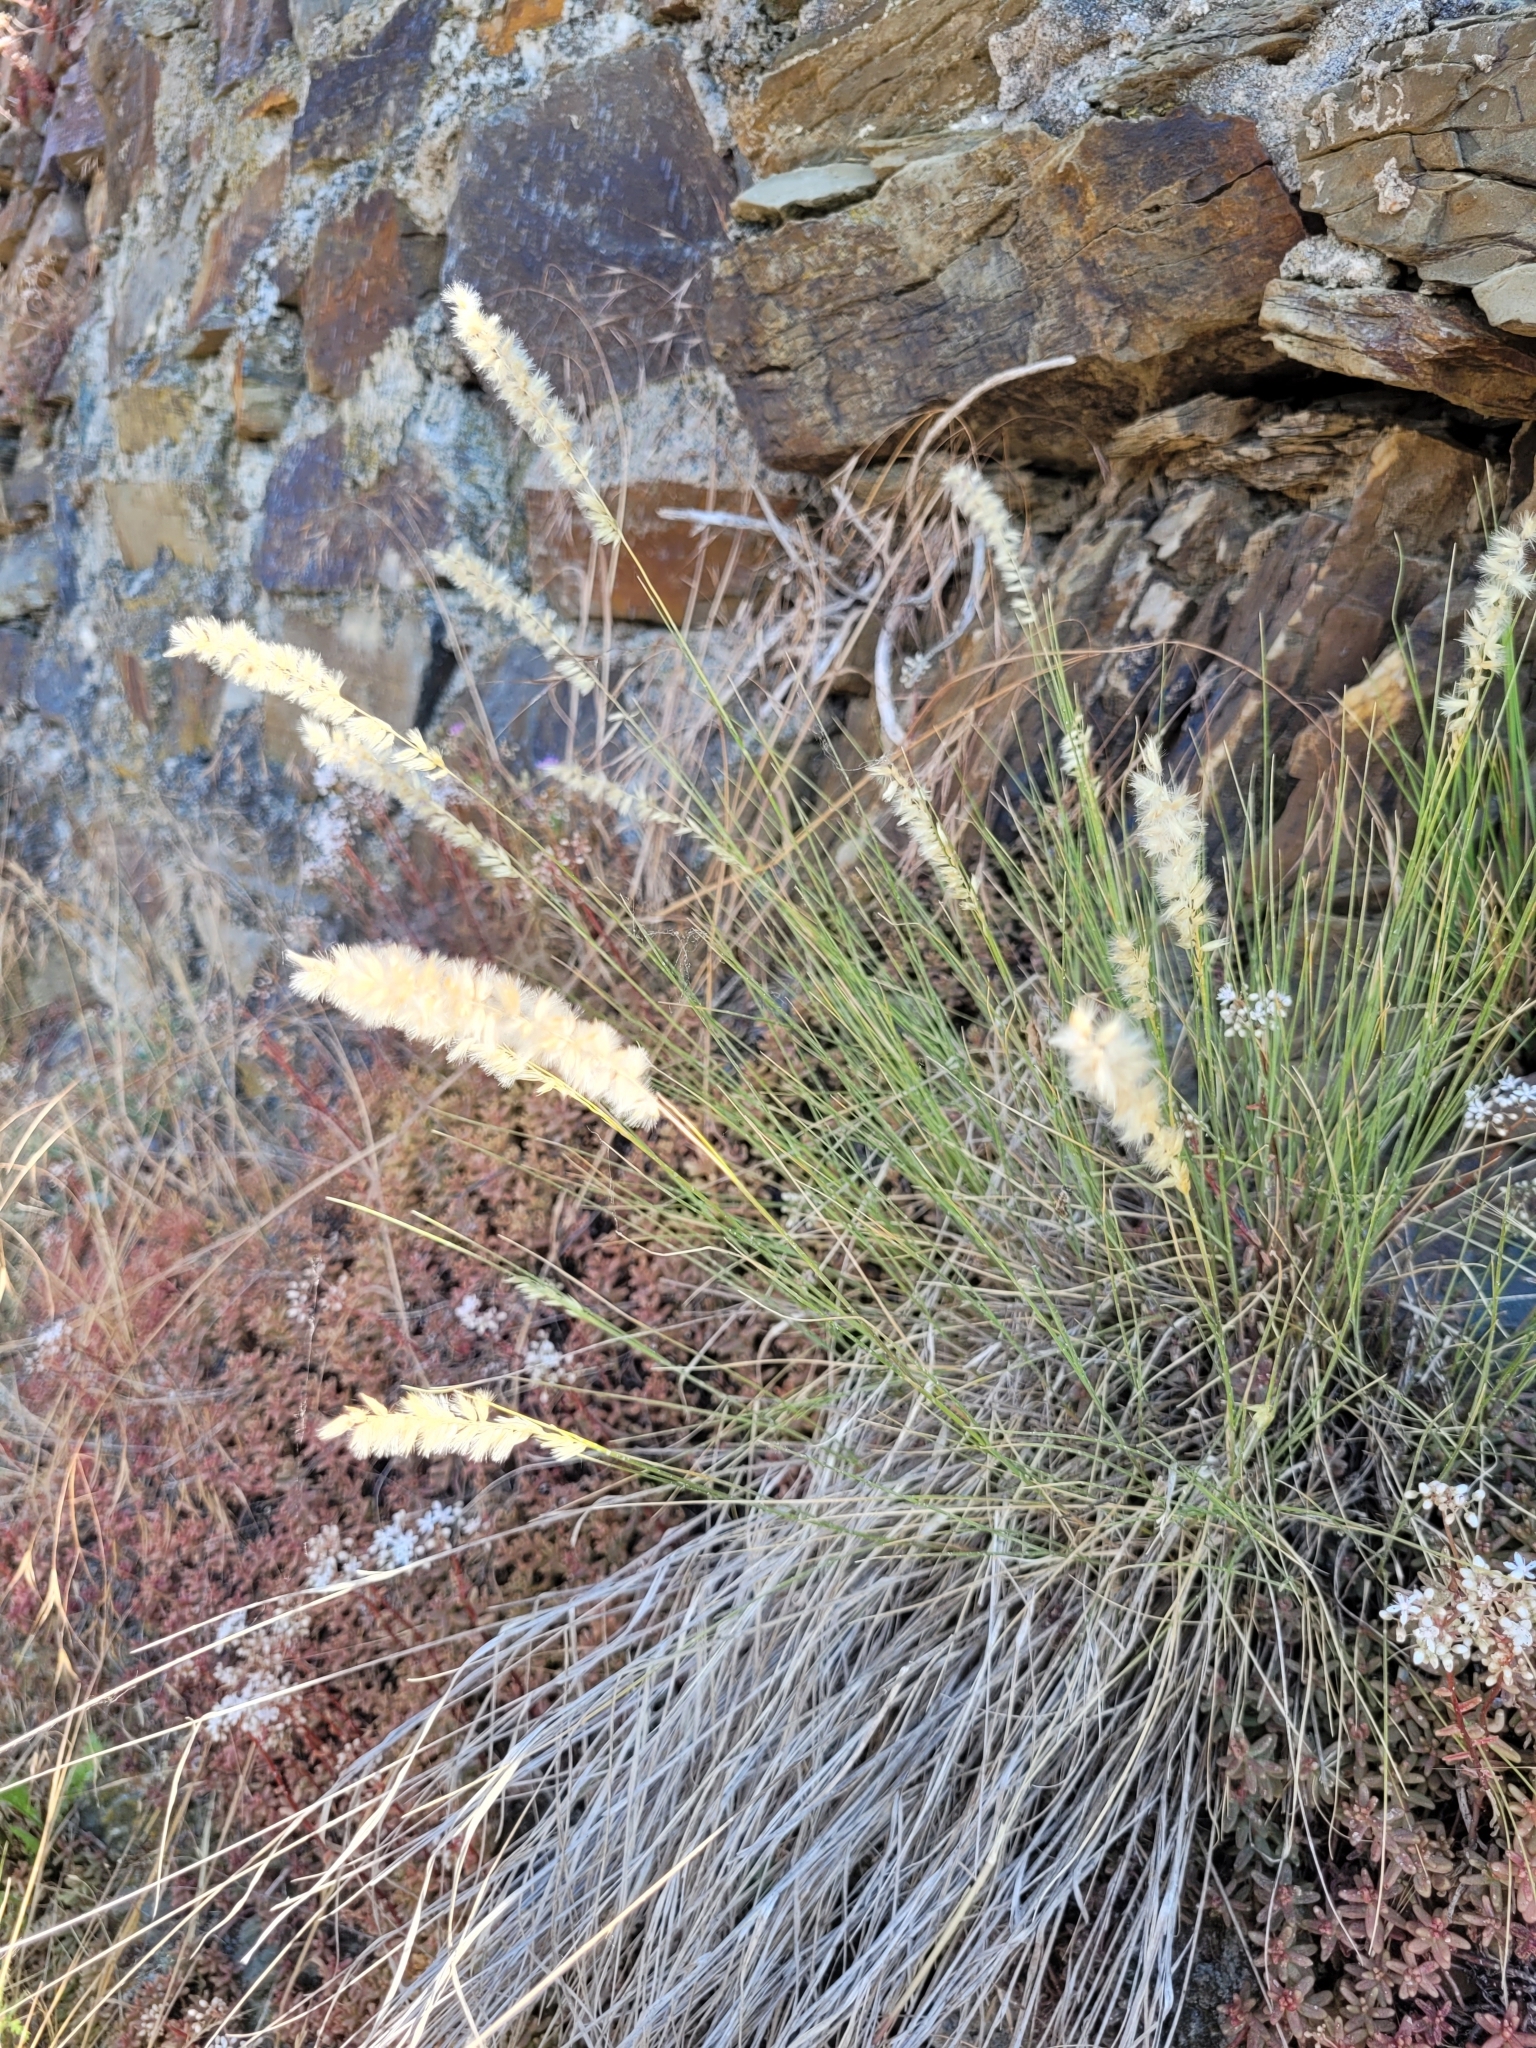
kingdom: Plantae
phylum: Tracheophyta
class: Liliopsida
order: Poales
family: Poaceae
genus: Melica
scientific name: Melica ciliata
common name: Hairy melicgrass
